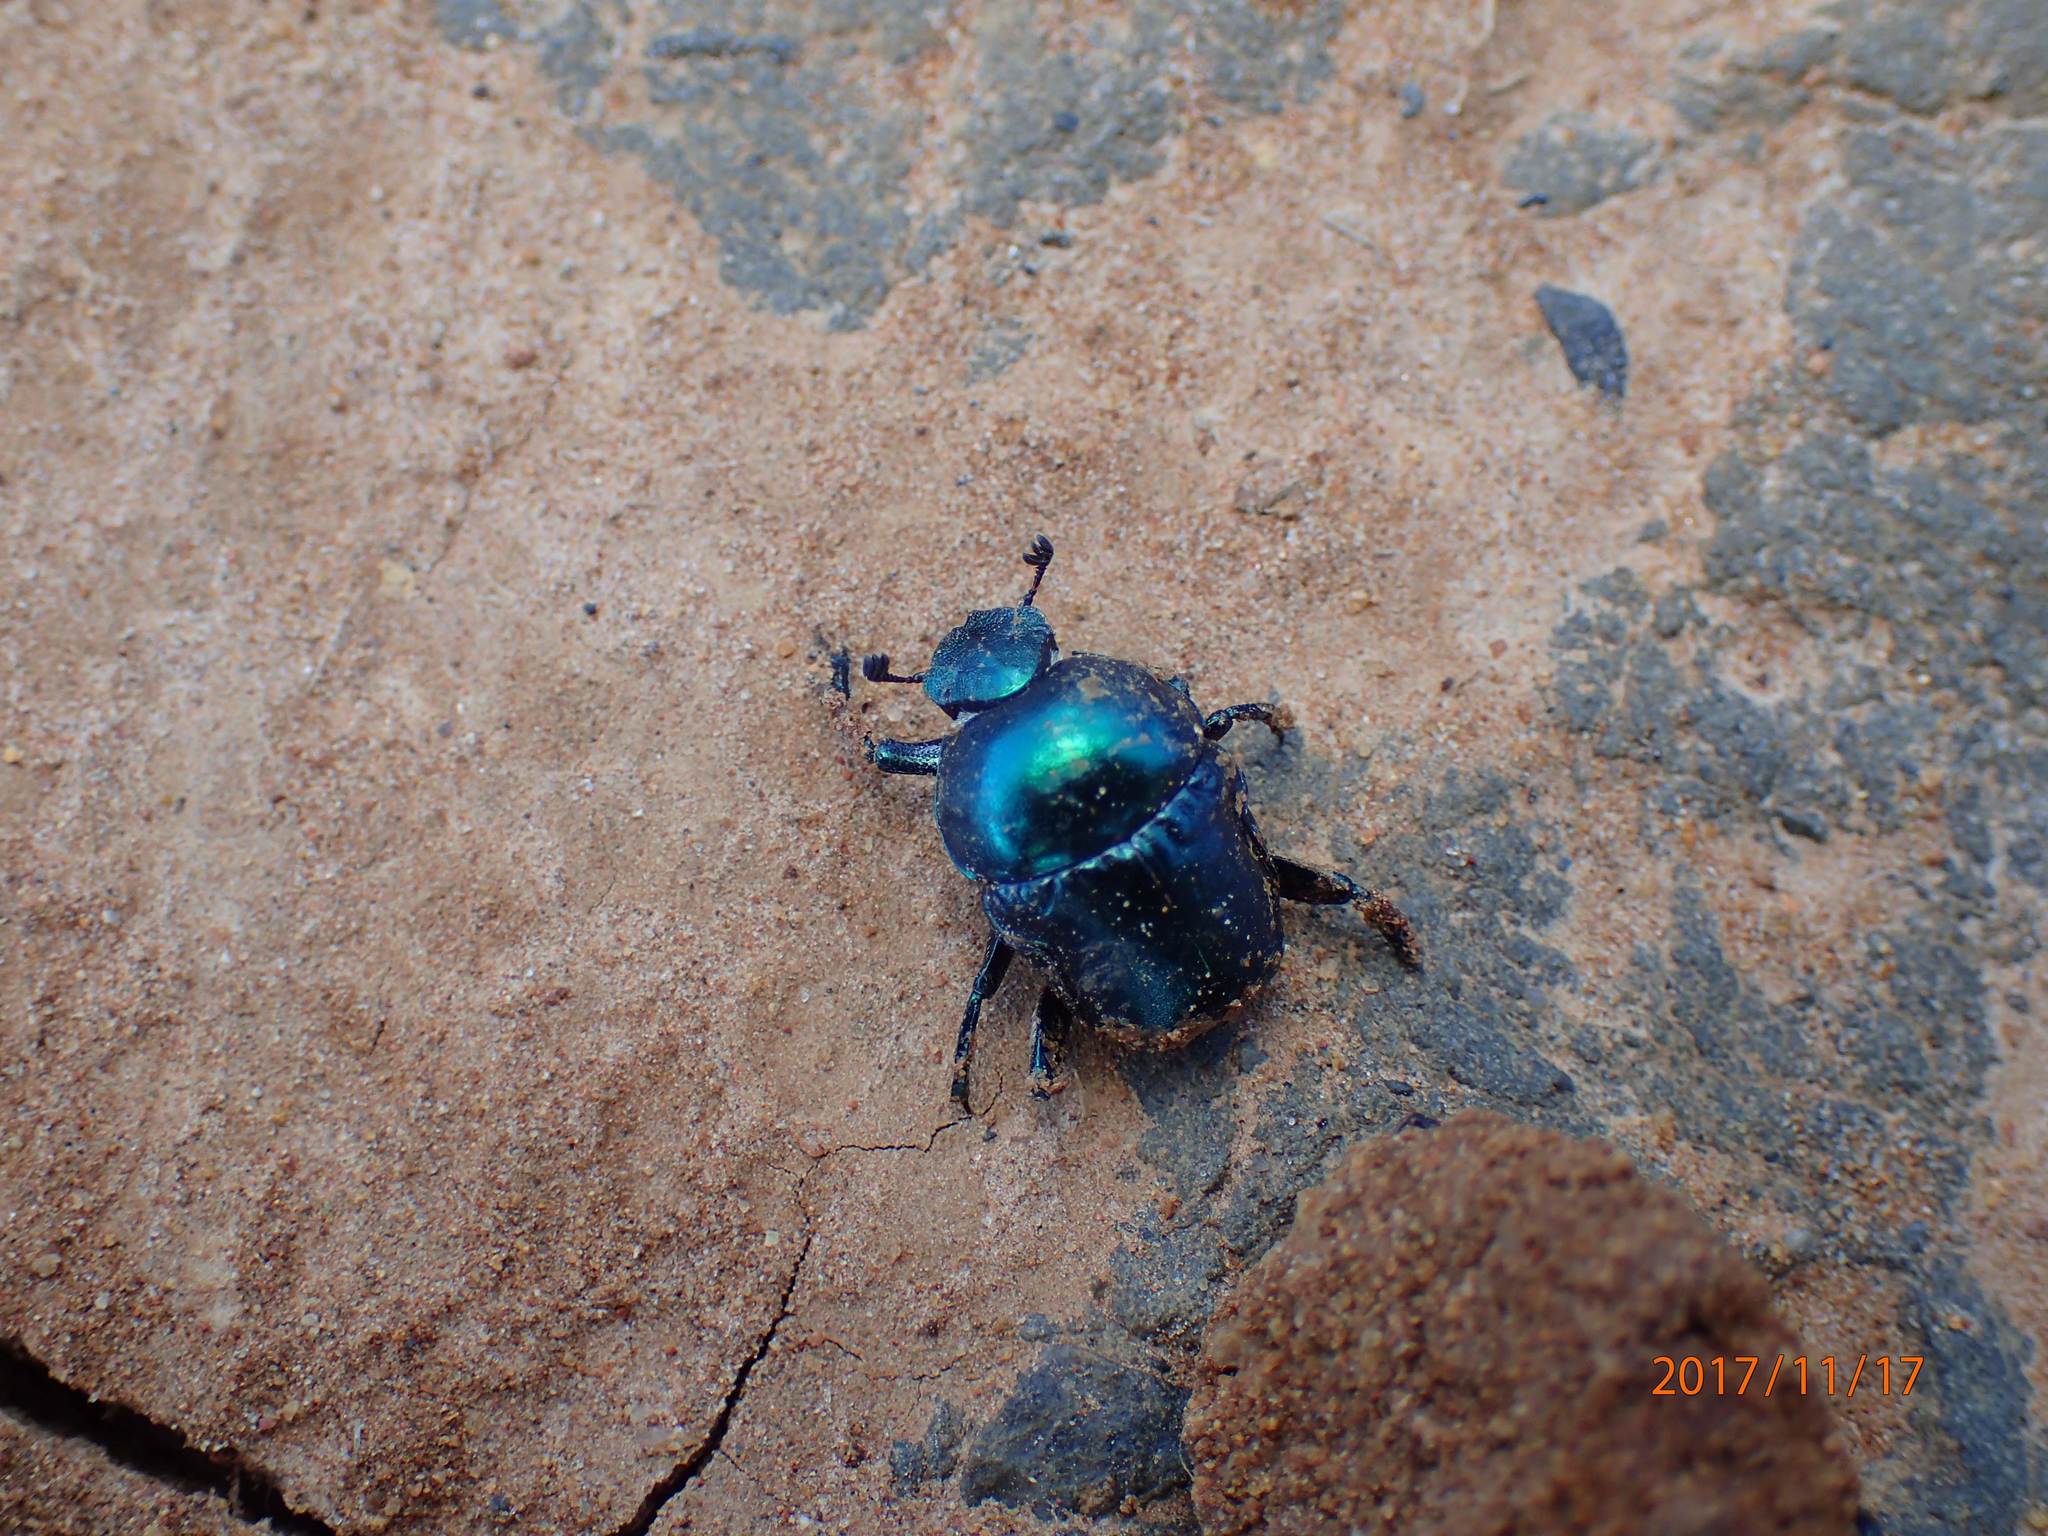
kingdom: Animalia
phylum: Arthropoda
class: Insecta
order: Coleoptera
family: Scarabaeidae
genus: Gymnopleurus
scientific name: Gymnopleurus virens
